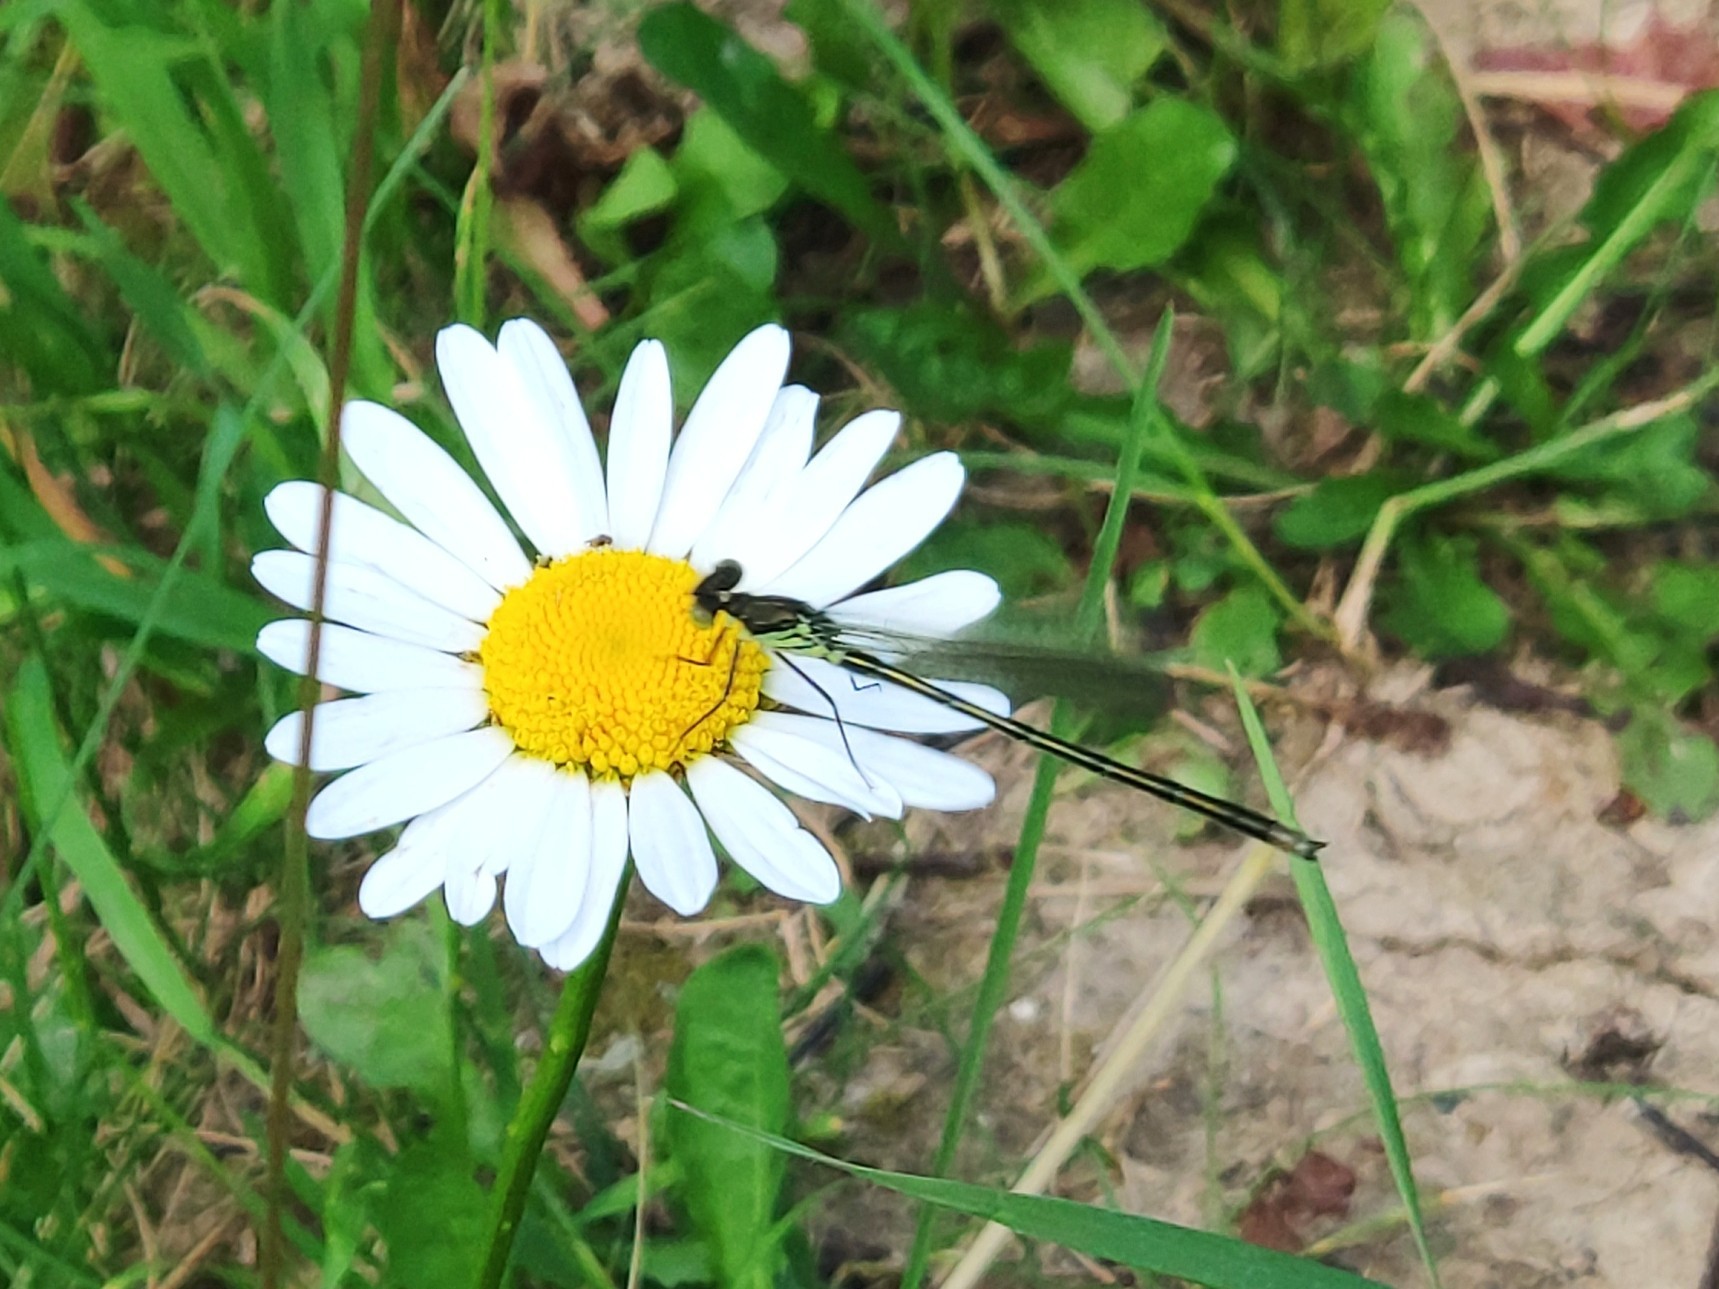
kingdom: Animalia
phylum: Arthropoda
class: Insecta
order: Odonata
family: Coenagrionidae
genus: Erythromma
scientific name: Erythromma najas
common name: Red-eyed damselfly
